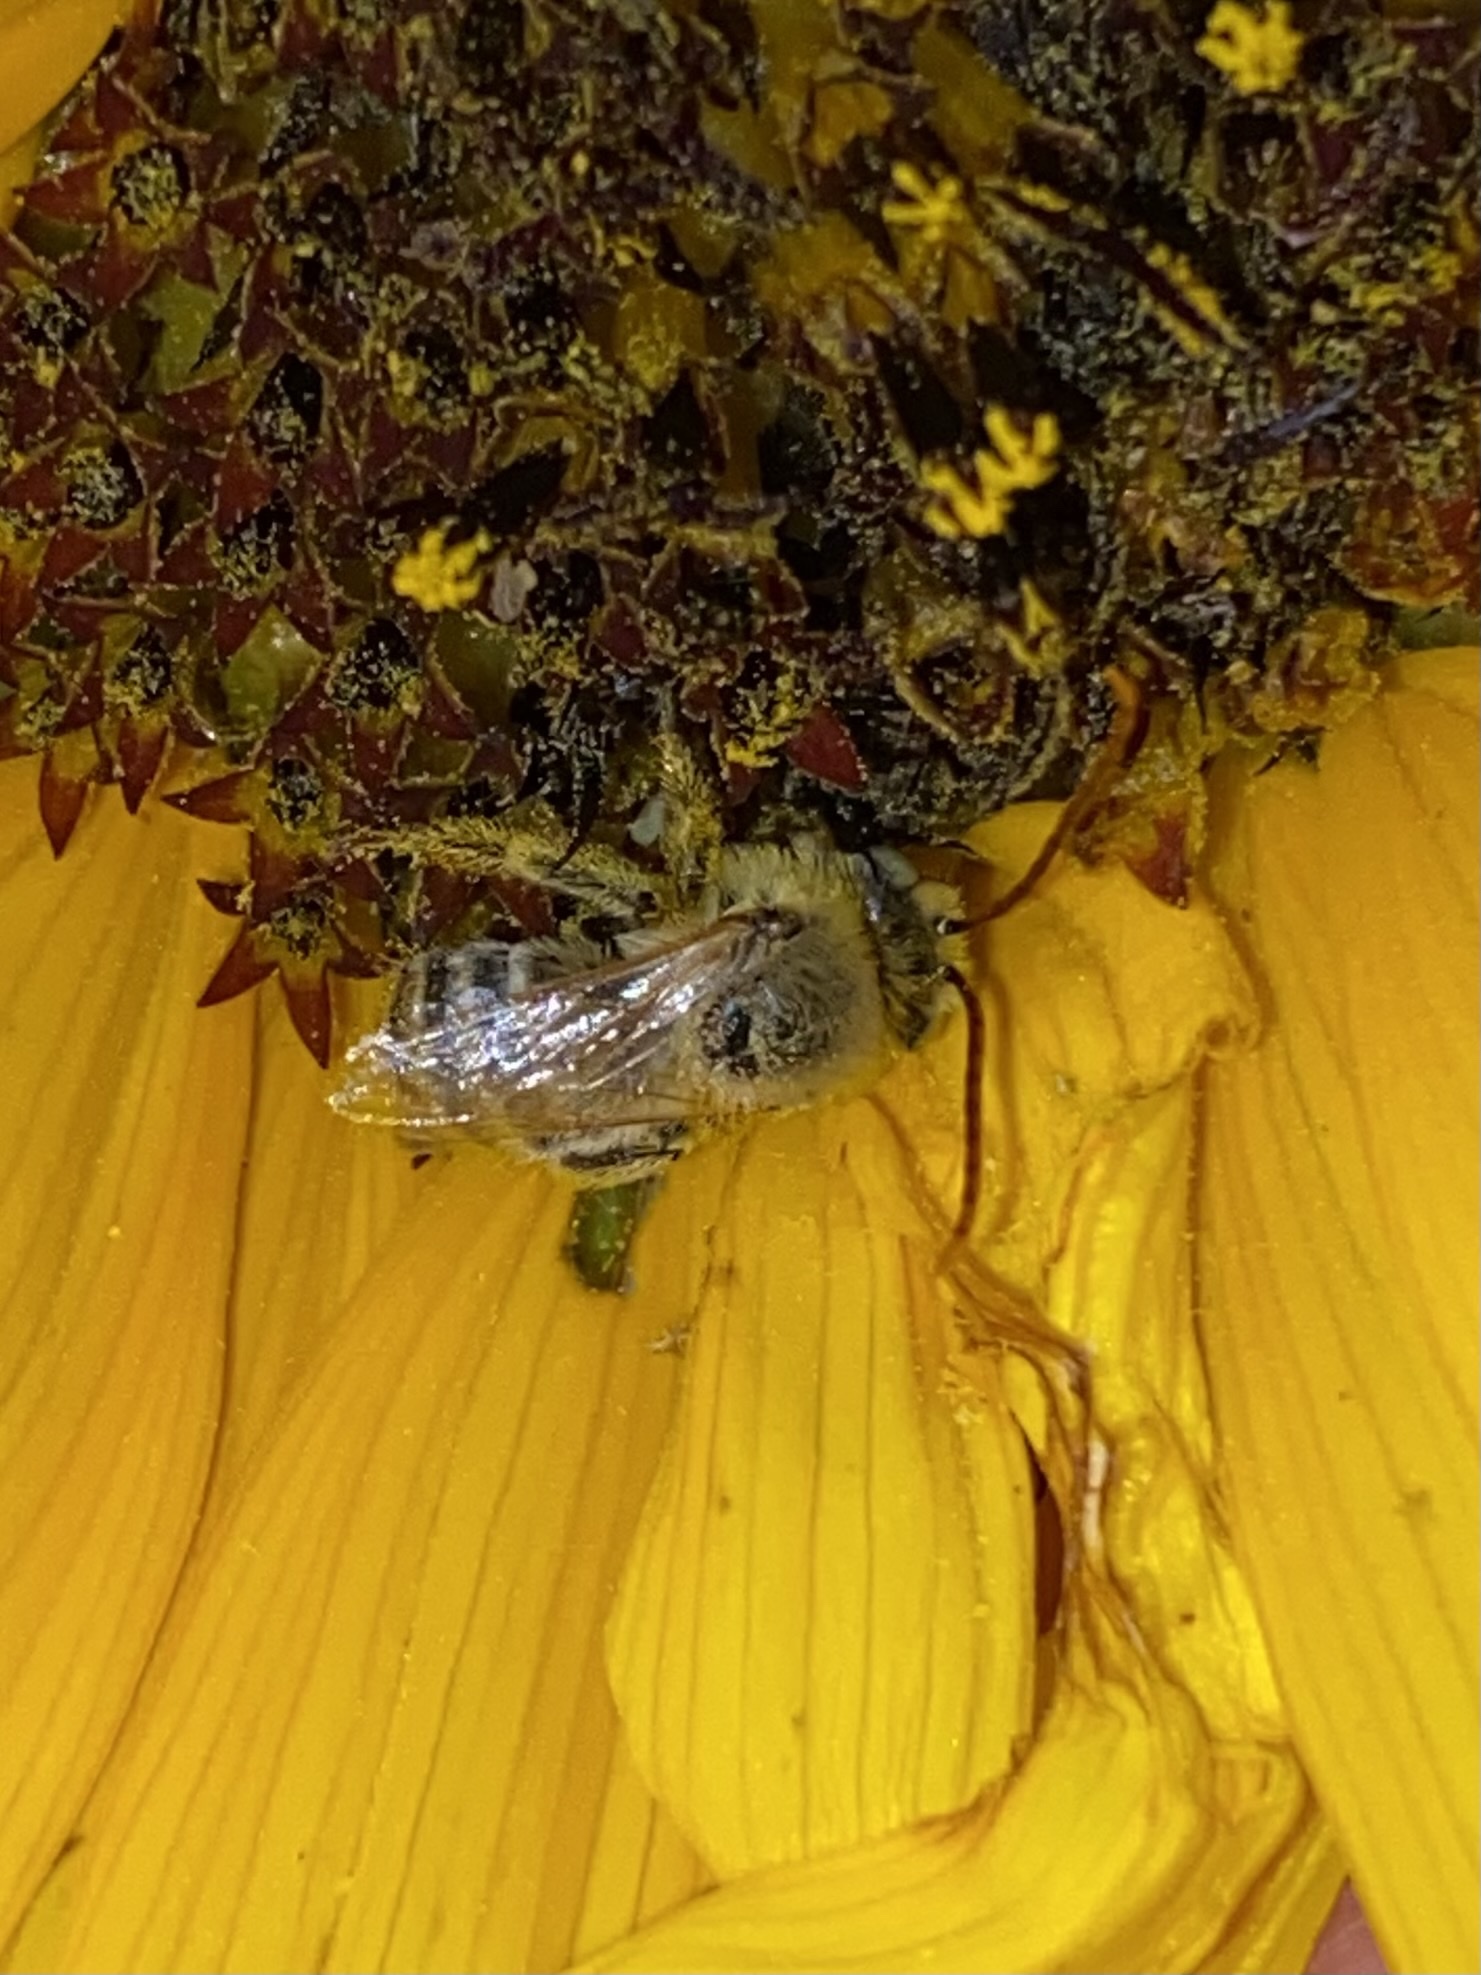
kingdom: Animalia
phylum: Arthropoda
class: Insecta
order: Hymenoptera
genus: Eumelissodes
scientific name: Eumelissodes
